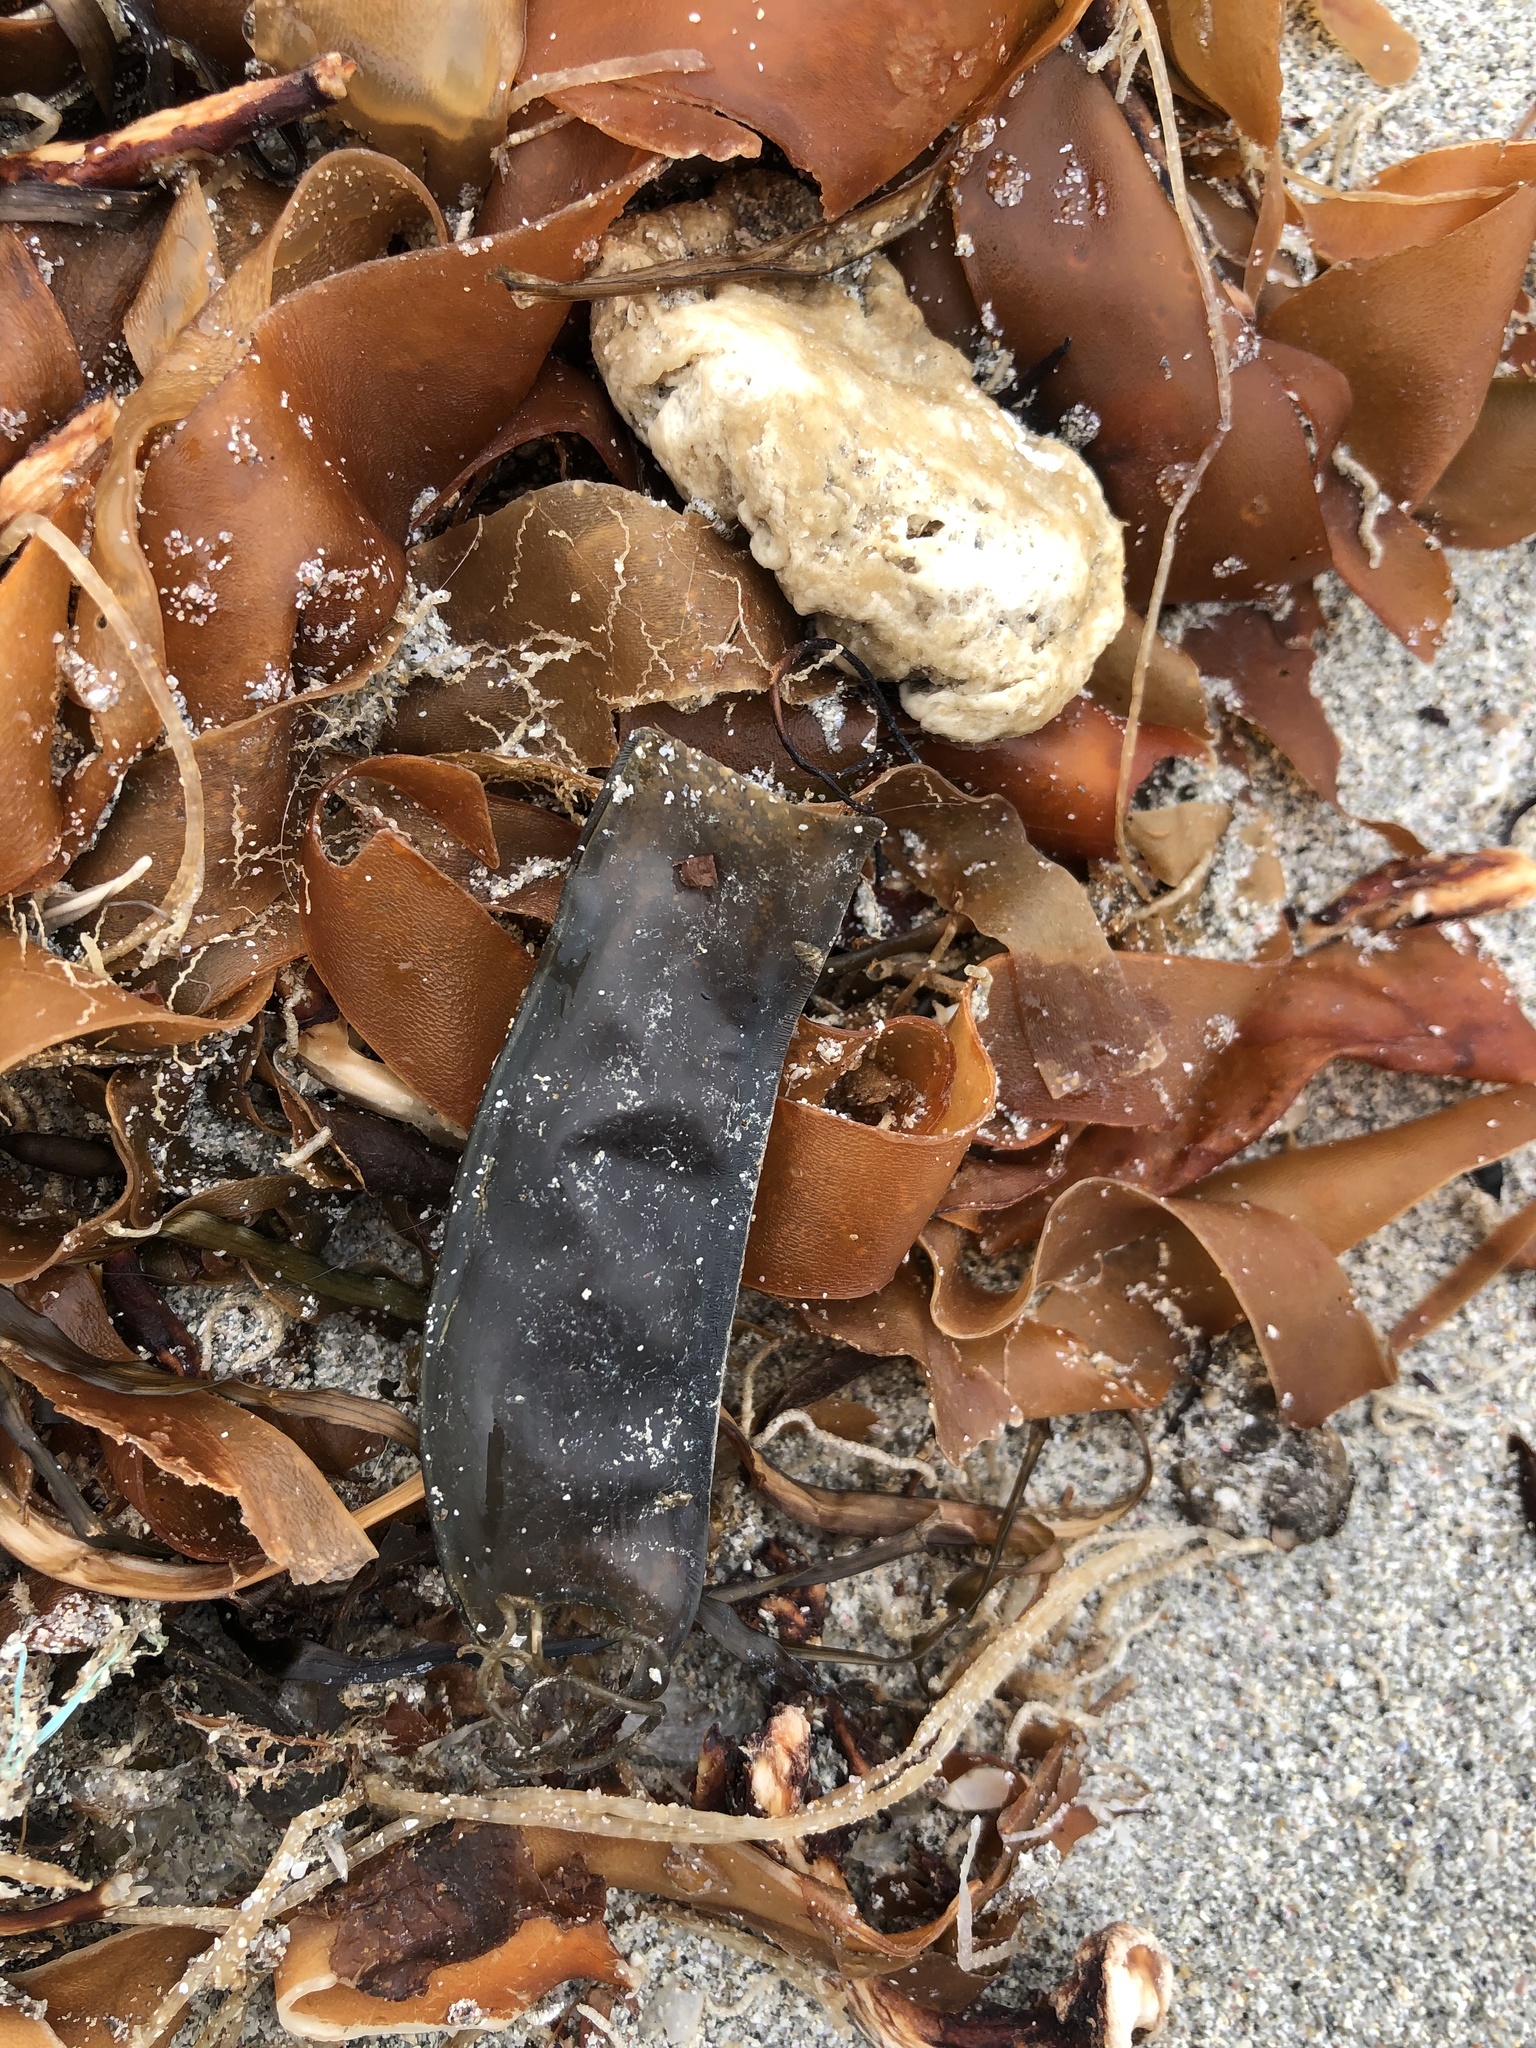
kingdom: Animalia
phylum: Chordata
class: Elasmobranchii
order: Carcharhiniformes
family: Scyliorhinidae
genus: Scyliorhinus
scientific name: Scyliorhinus canicula
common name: Lesser spotted dogfish
